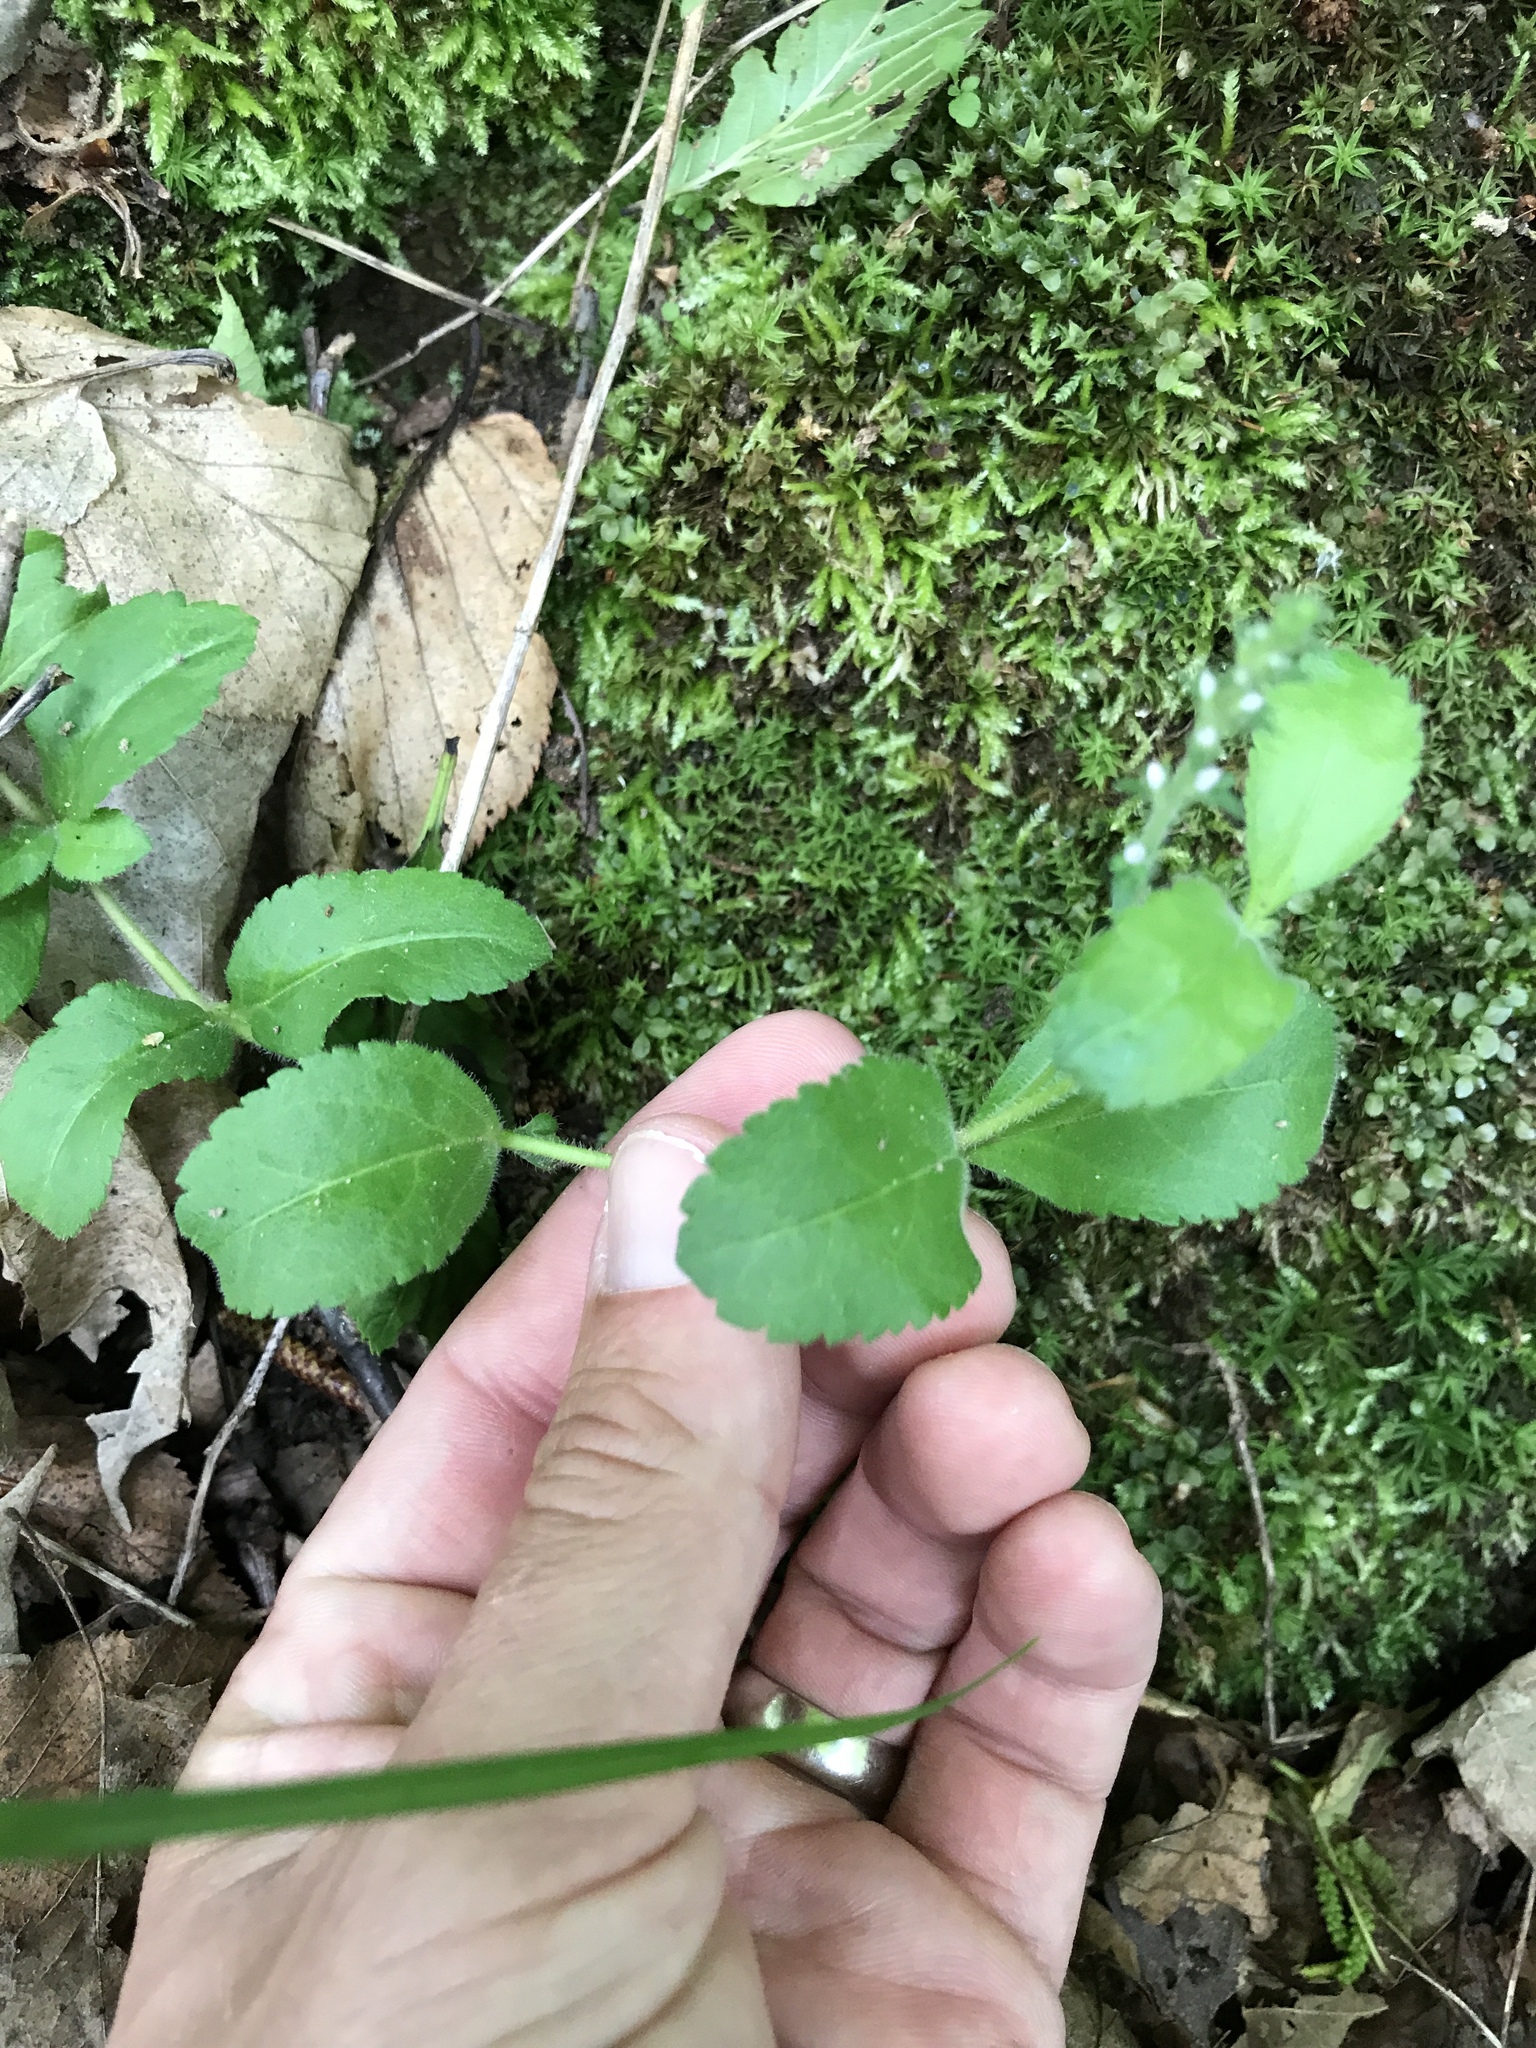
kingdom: Plantae
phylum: Tracheophyta
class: Magnoliopsida
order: Lamiales
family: Plantaginaceae
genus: Veronica
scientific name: Veronica officinalis
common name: Common speedwell
